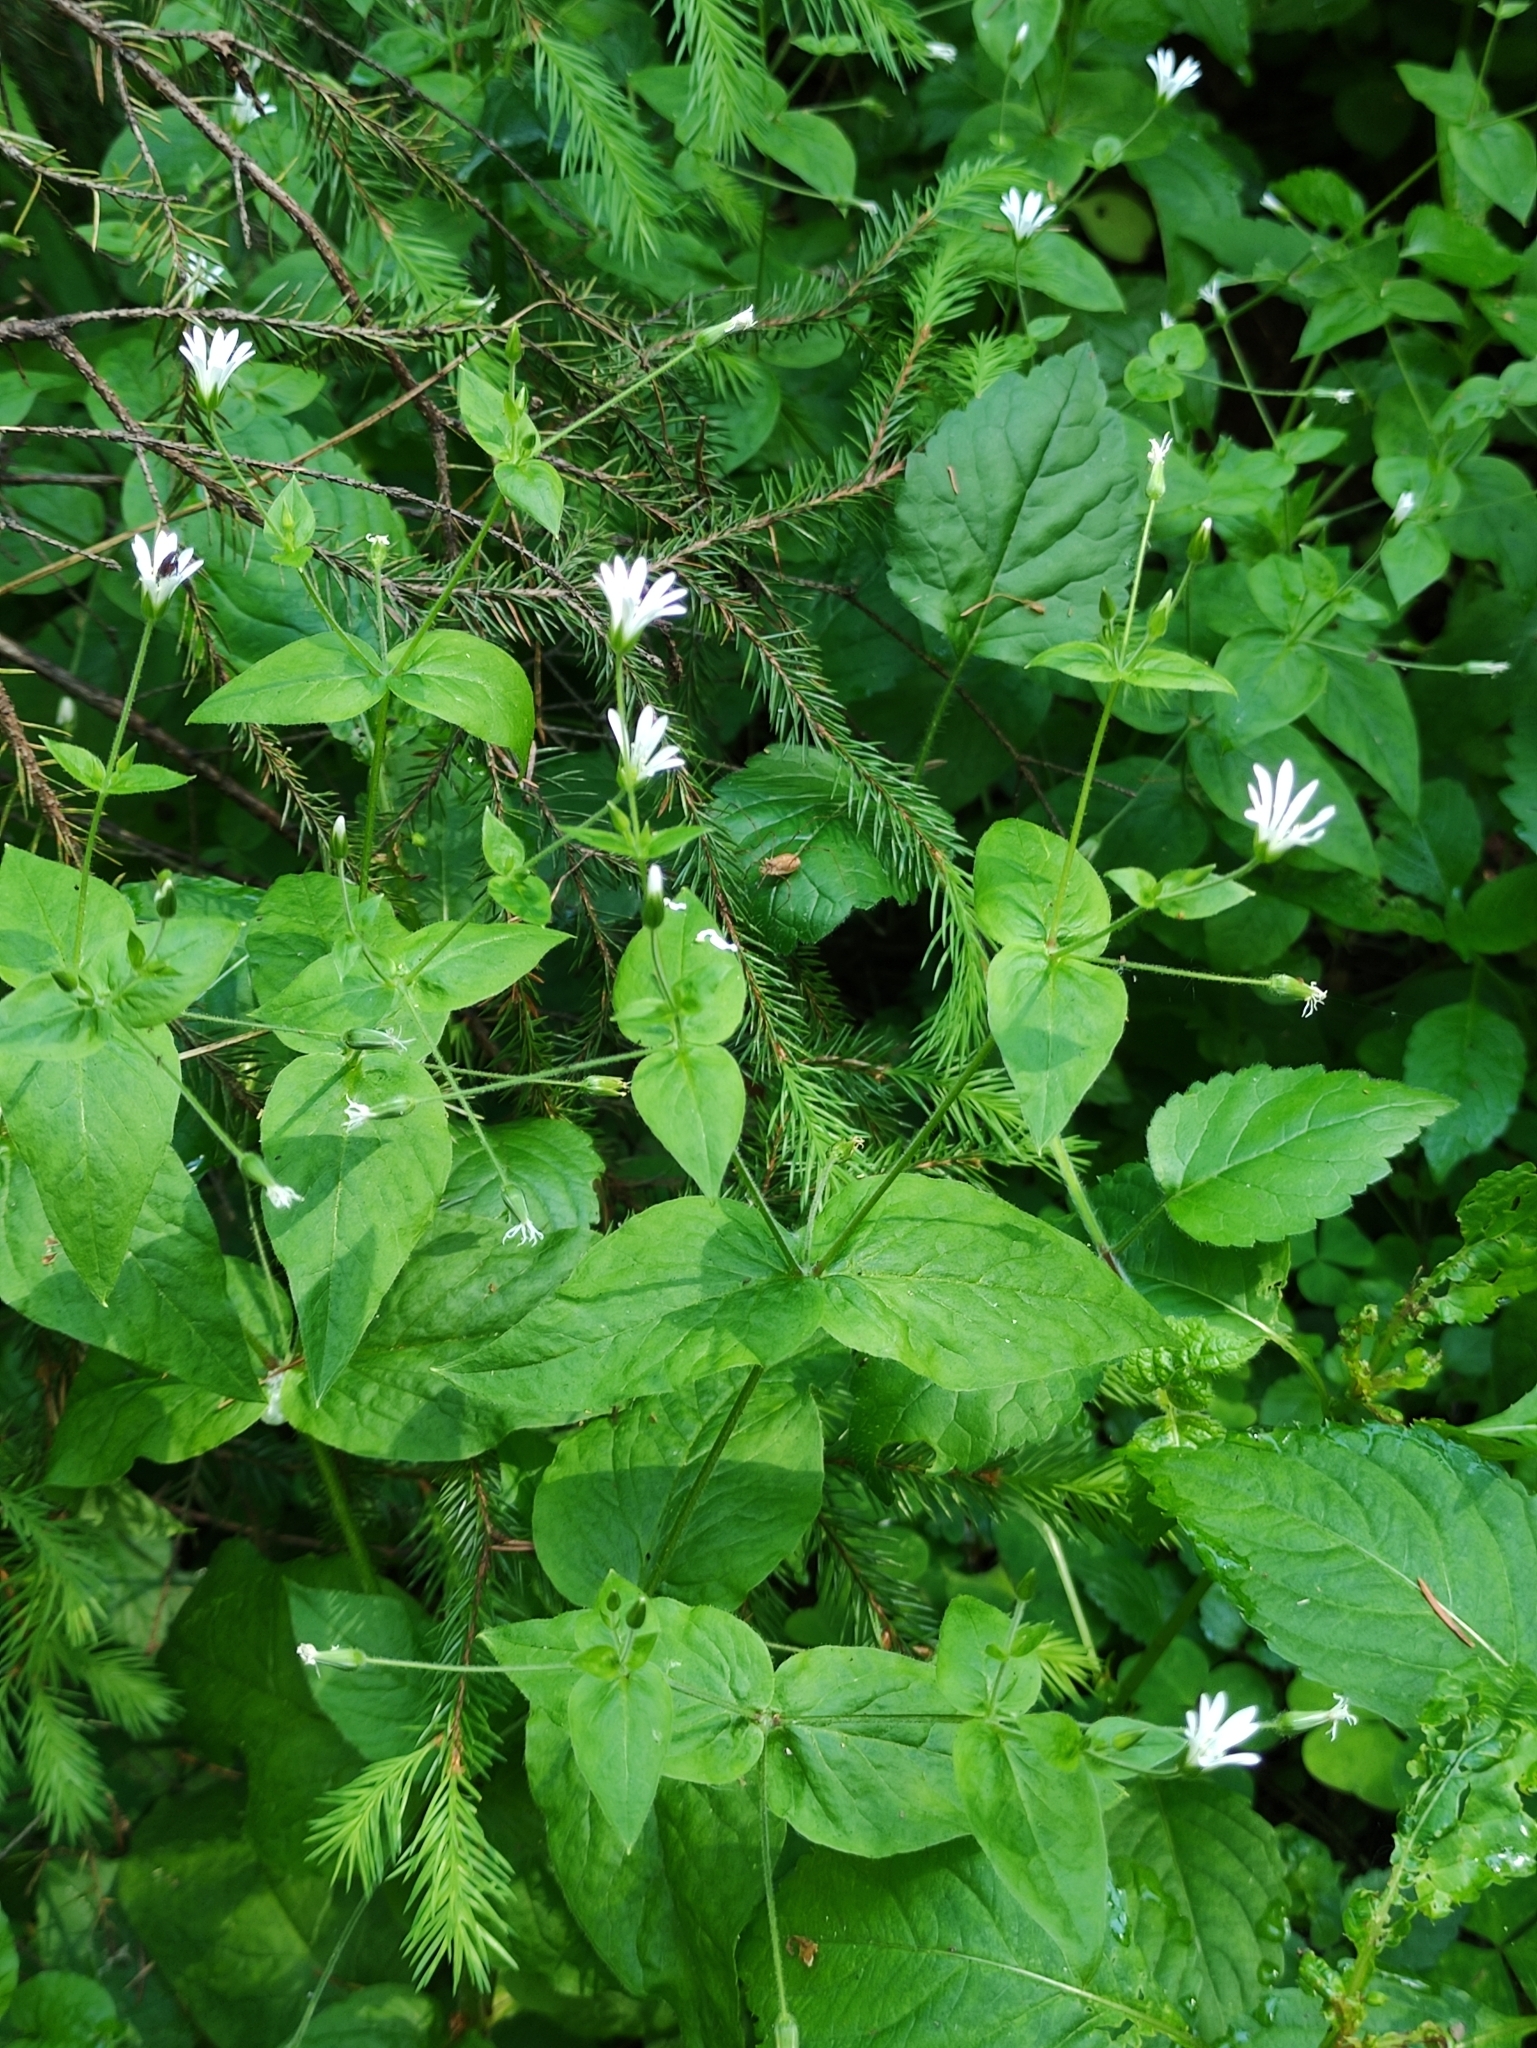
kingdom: Plantae
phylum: Tracheophyta
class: Magnoliopsida
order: Caryophyllales
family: Caryophyllaceae
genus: Stellaria
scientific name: Stellaria nemorum
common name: Wood stitchwort
